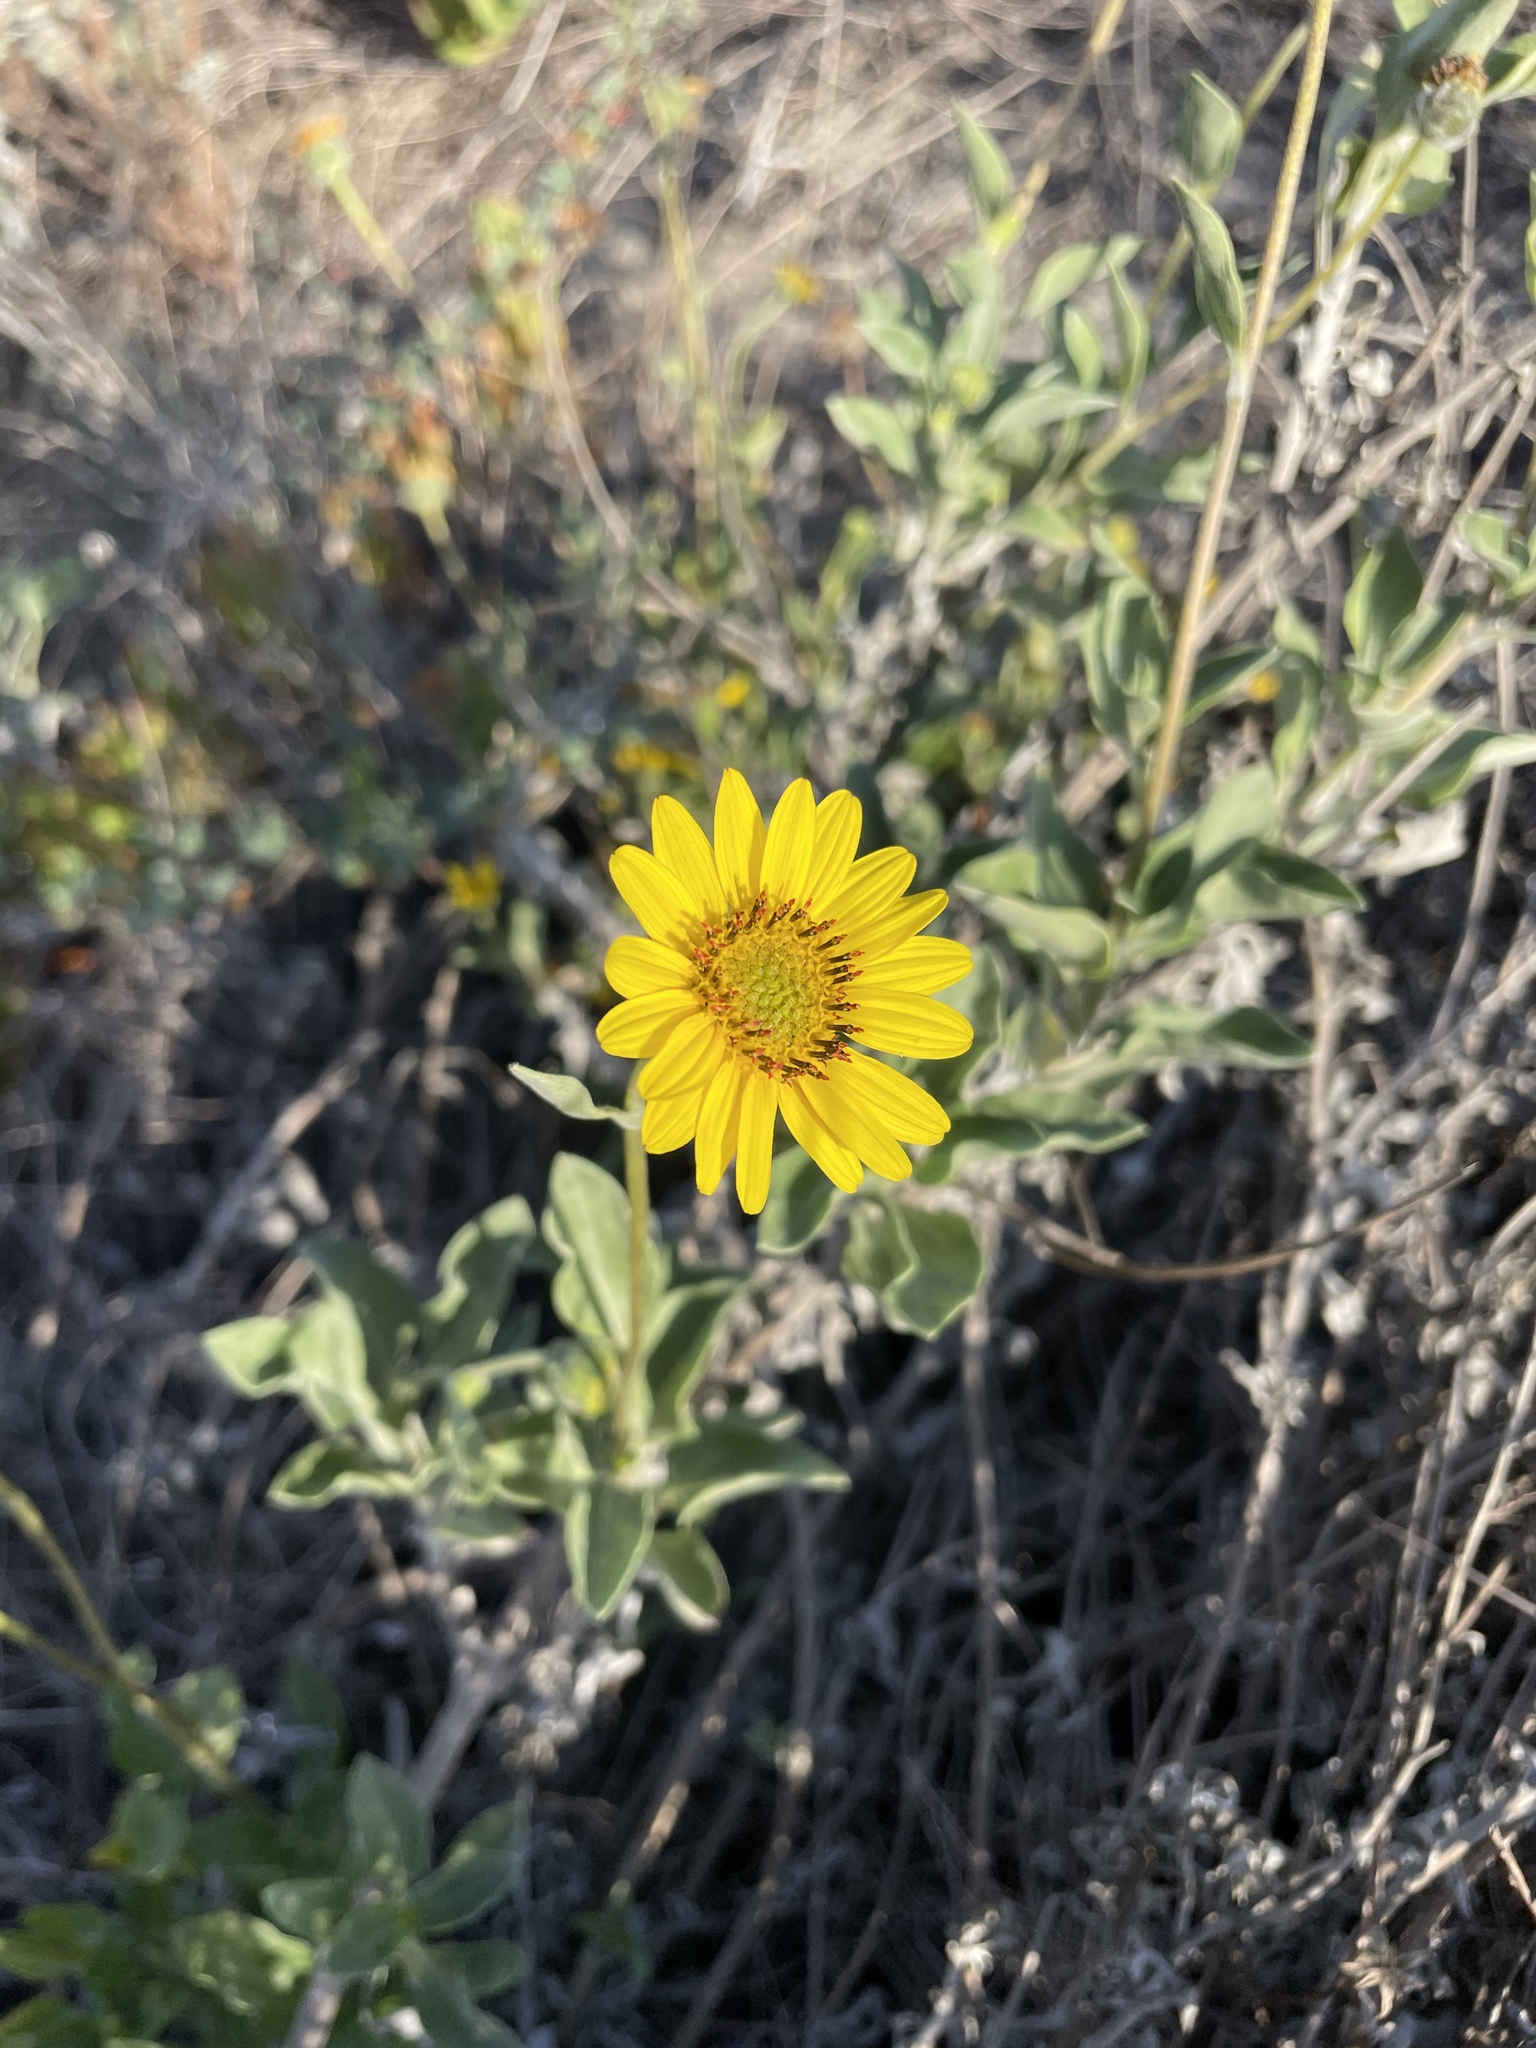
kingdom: Plantae
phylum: Tracheophyta
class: Magnoliopsida
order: Asterales
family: Asteraceae
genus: Helianthus
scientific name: Helianthus niveus
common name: Snowy sunflower
